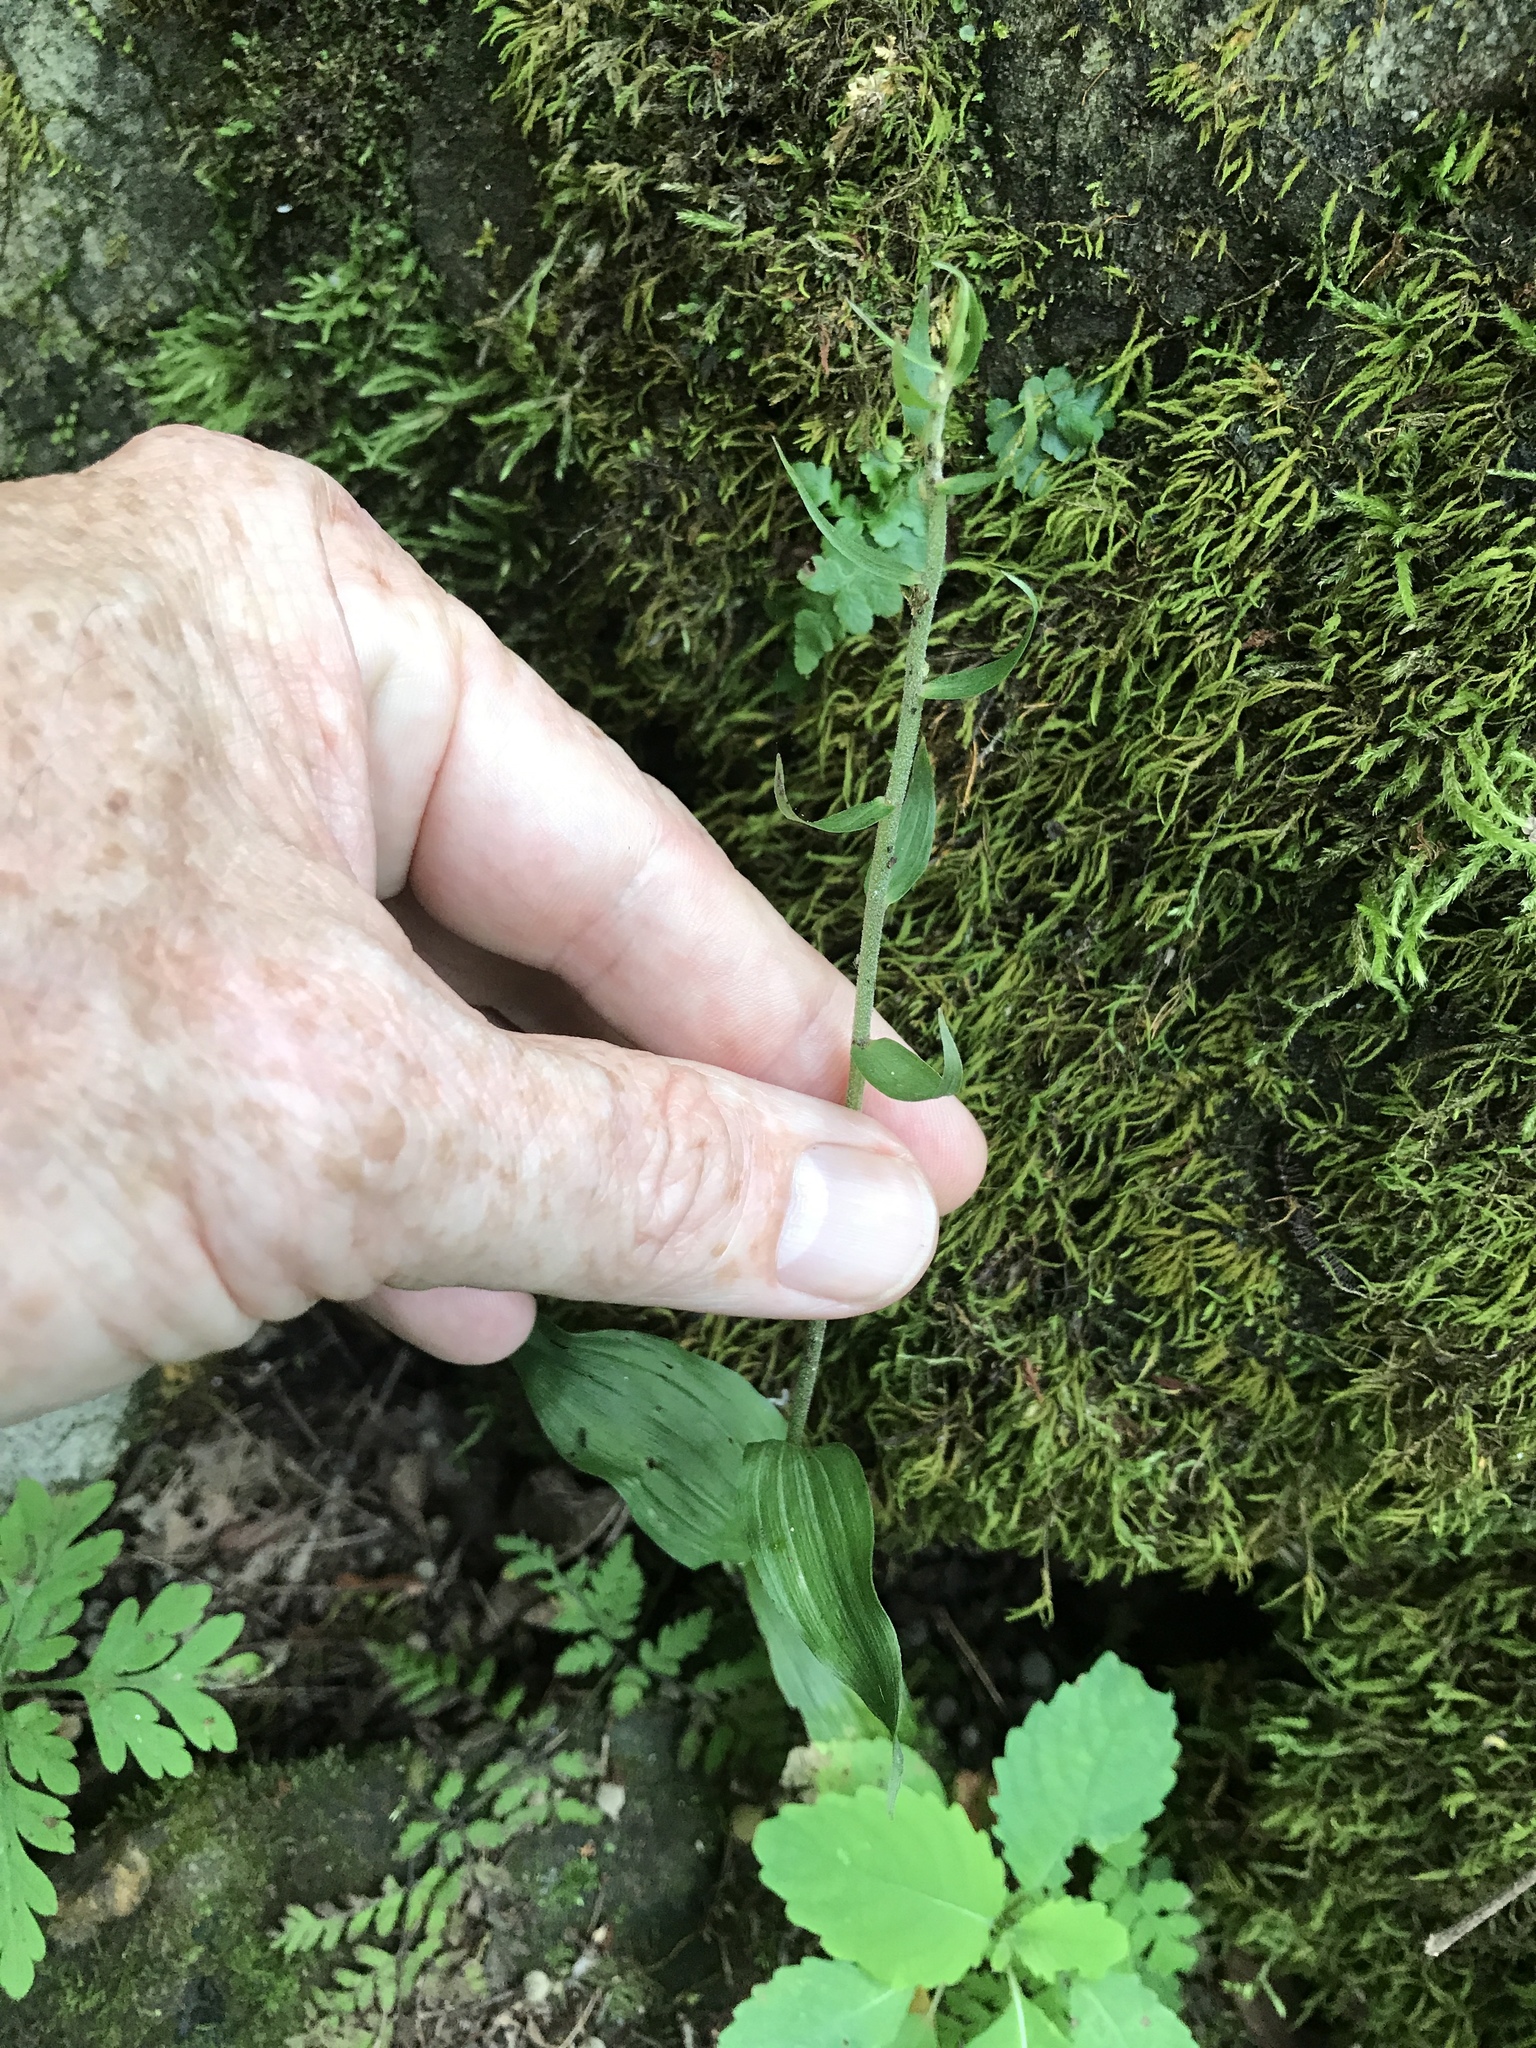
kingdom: Plantae
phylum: Tracheophyta
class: Liliopsida
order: Asparagales
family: Orchidaceae
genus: Epipactis
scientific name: Epipactis helleborine
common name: Broad-leaved helleborine
